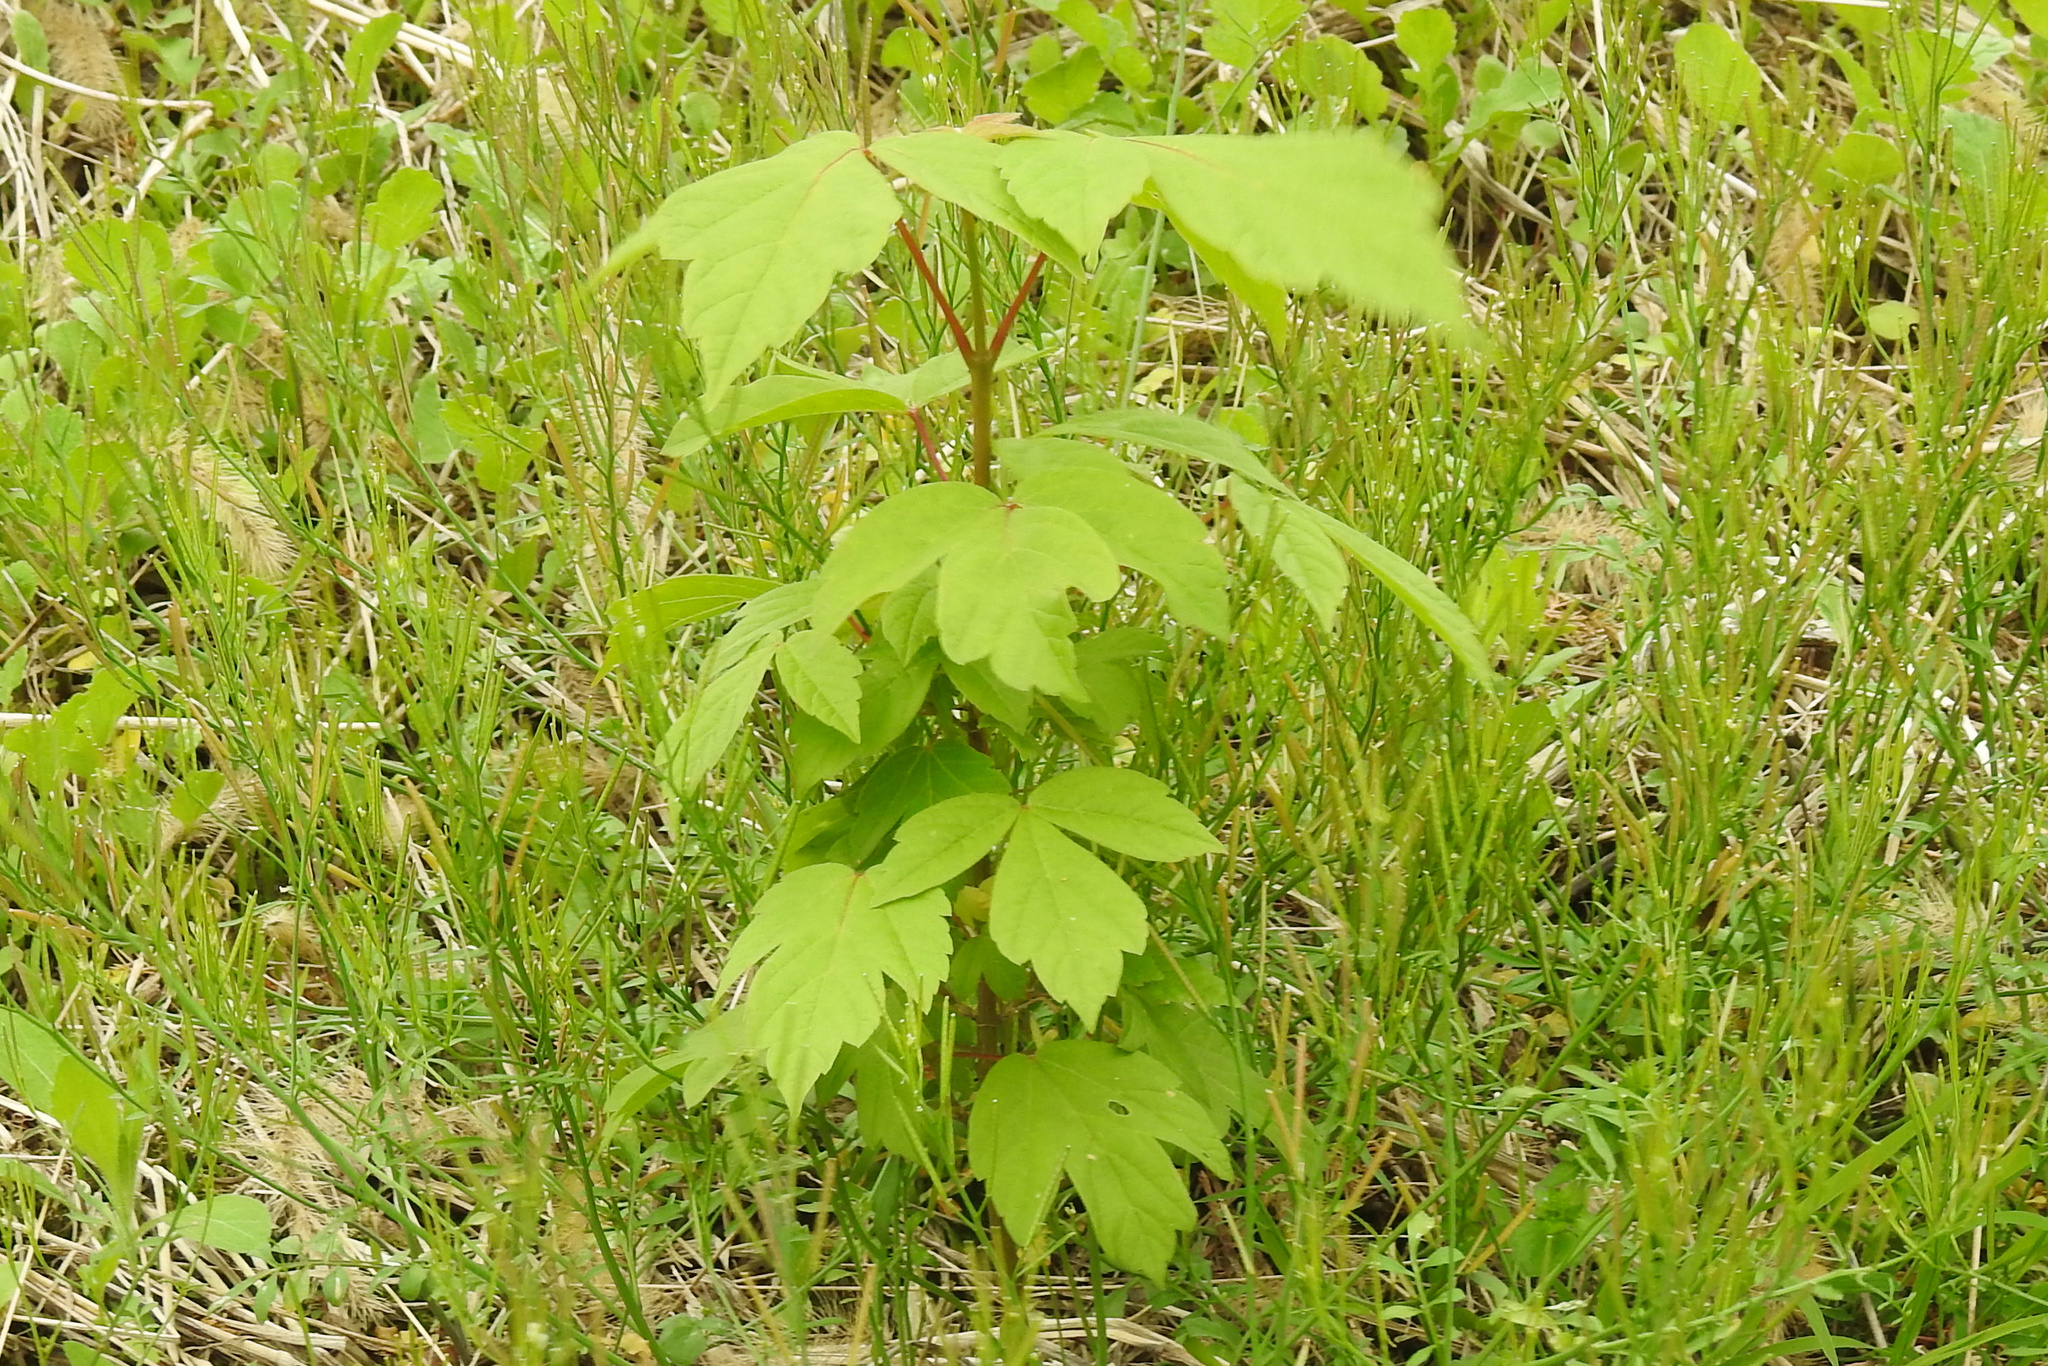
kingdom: Plantae
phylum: Tracheophyta
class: Magnoliopsida
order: Sapindales
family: Sapindaceae
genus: Acer
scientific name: Acer negundo
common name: Ashleaf maple
